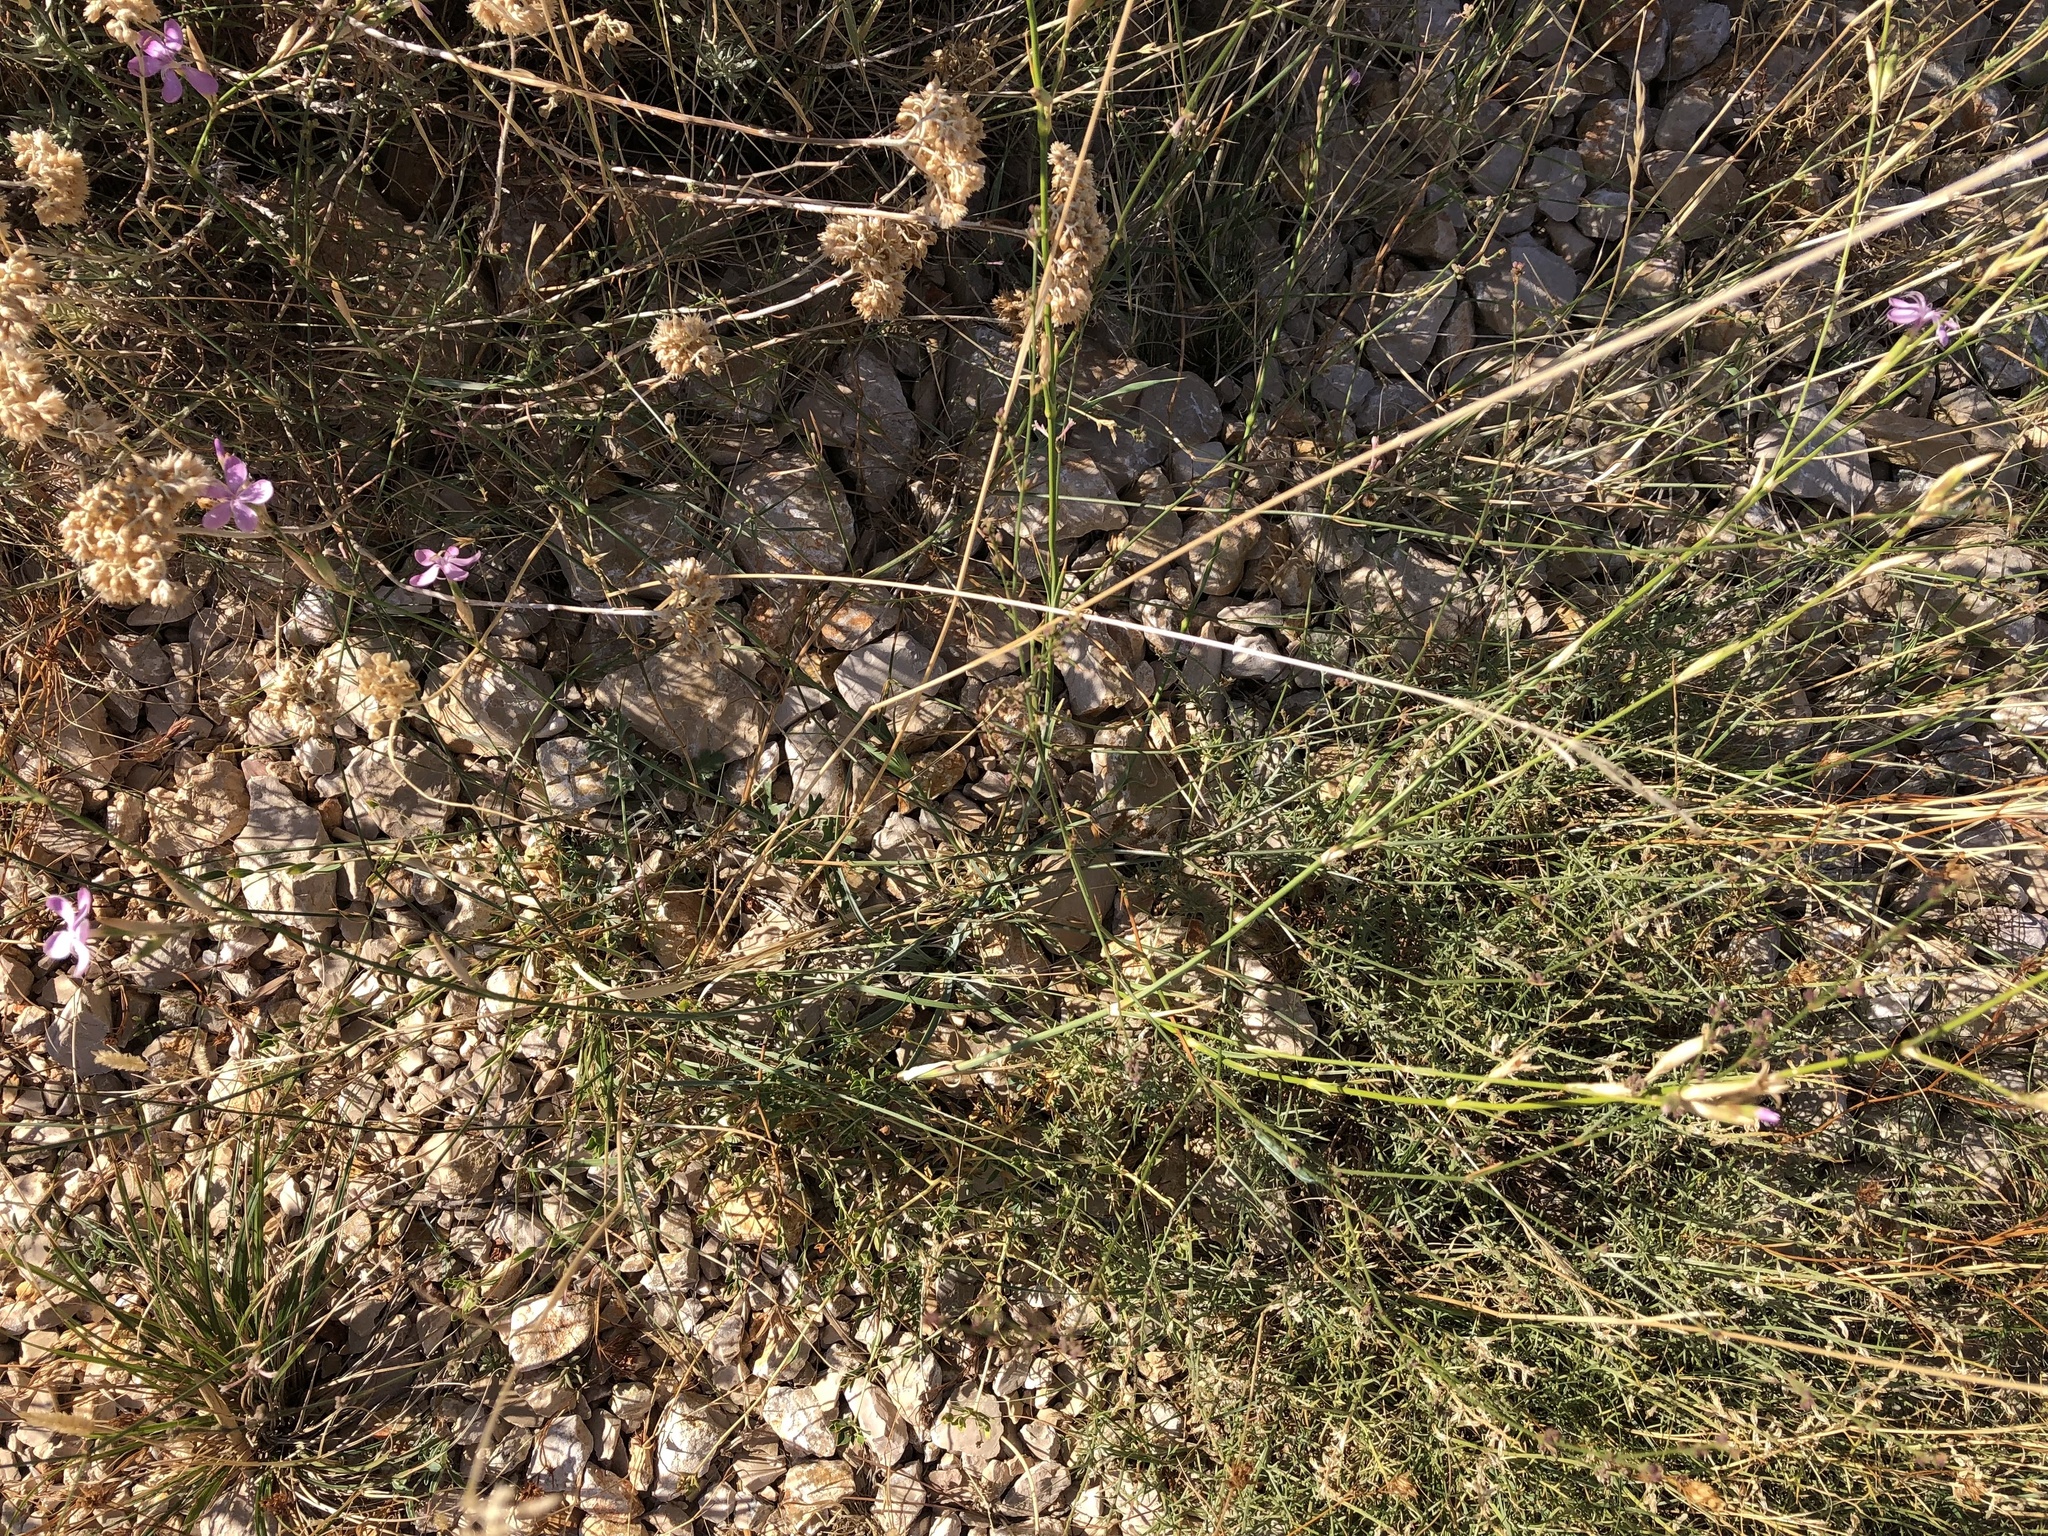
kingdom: Plantae
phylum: Tracheophyta
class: Magnoliopsida
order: Caryophyllales
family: Caryophyllaceae
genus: Dianthus
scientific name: Dianthus ciliatus
